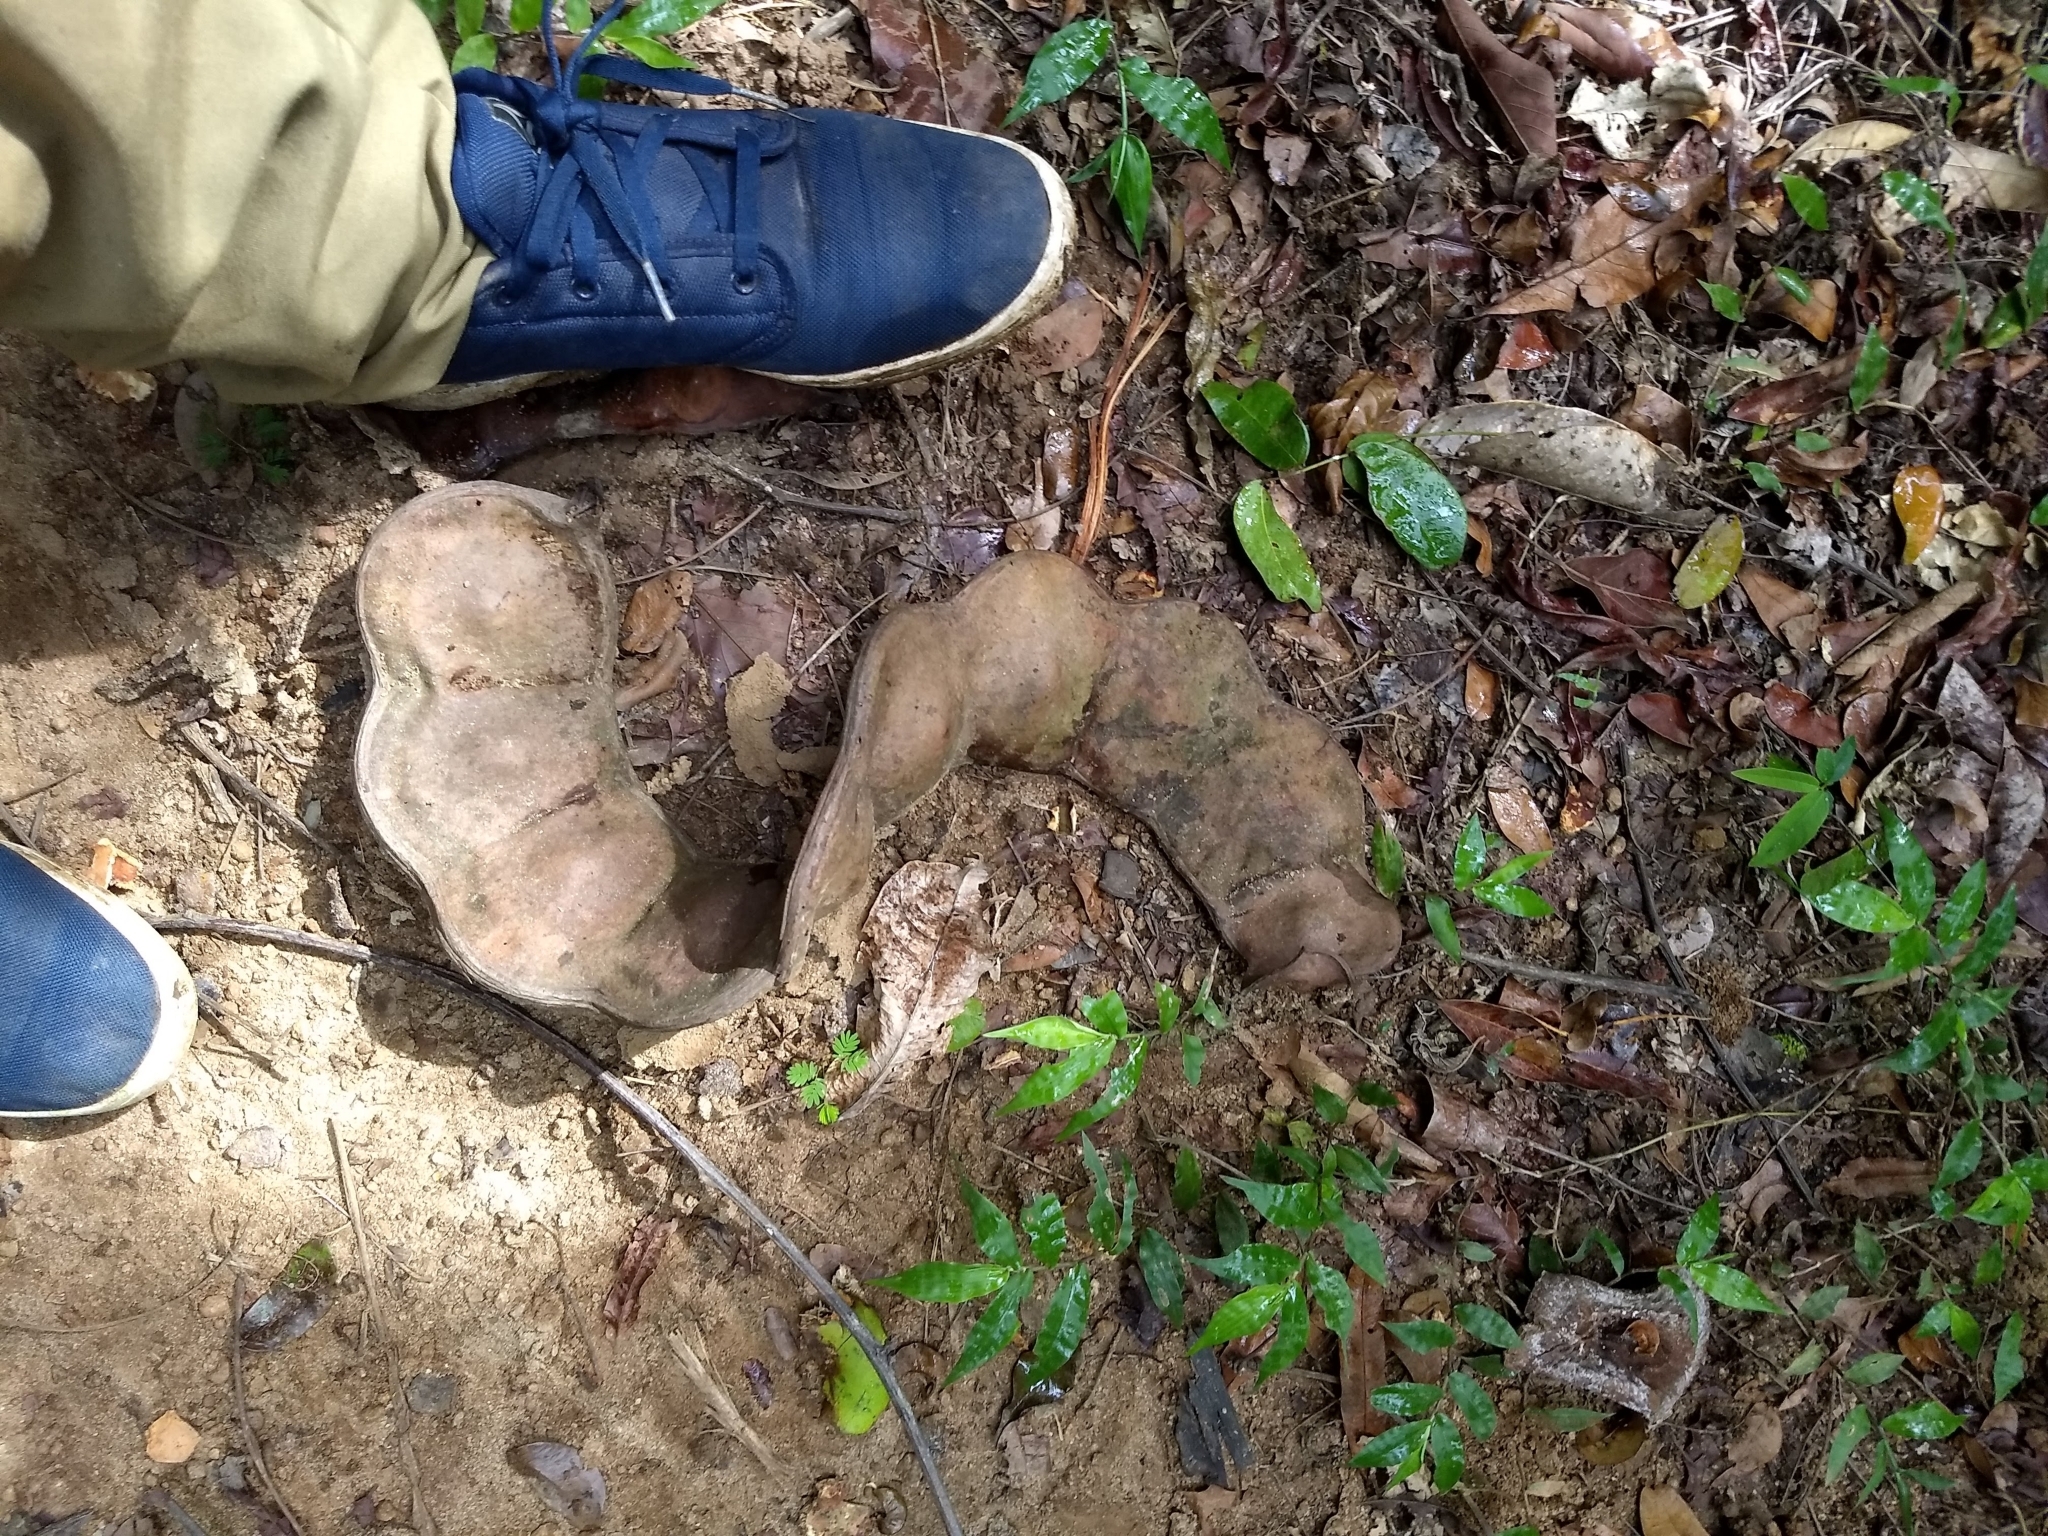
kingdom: Plantae
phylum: Tracheophyta
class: Magnoliopsida
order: Fabales
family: Fabaceae
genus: Entada
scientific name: Entada rheedei
